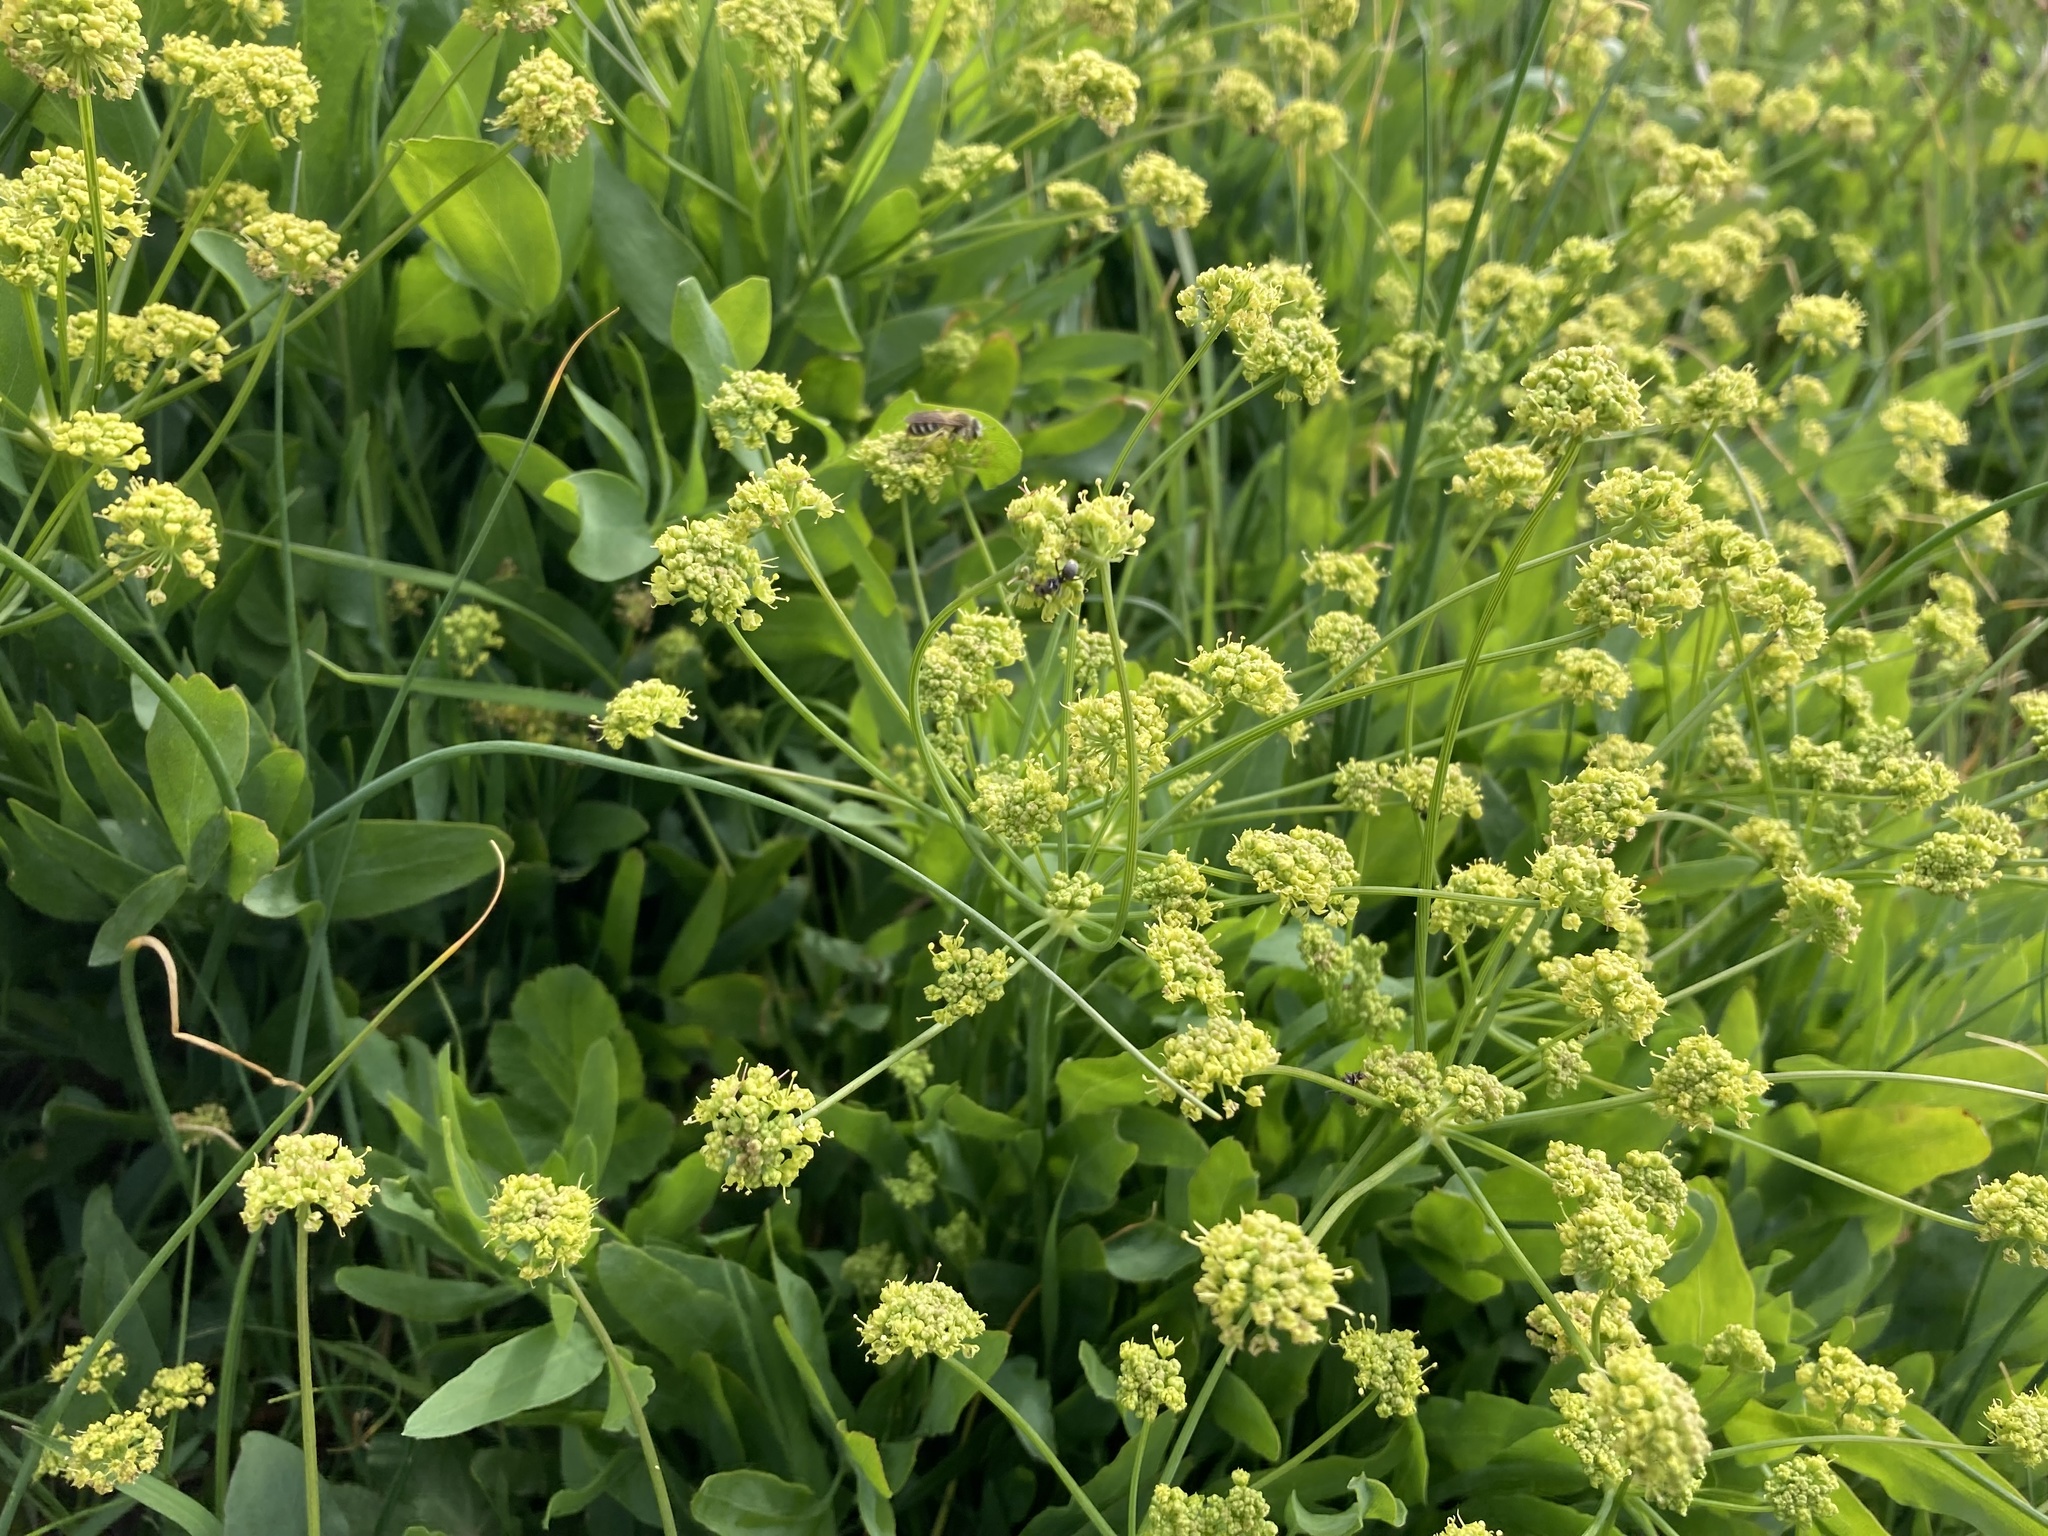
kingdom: Plantae
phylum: Tracheophyta
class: Magnoliopsida
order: Apiales
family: Apiaceae
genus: Lomatium
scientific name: Lomatium nudicaule
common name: Pestle lomatium
